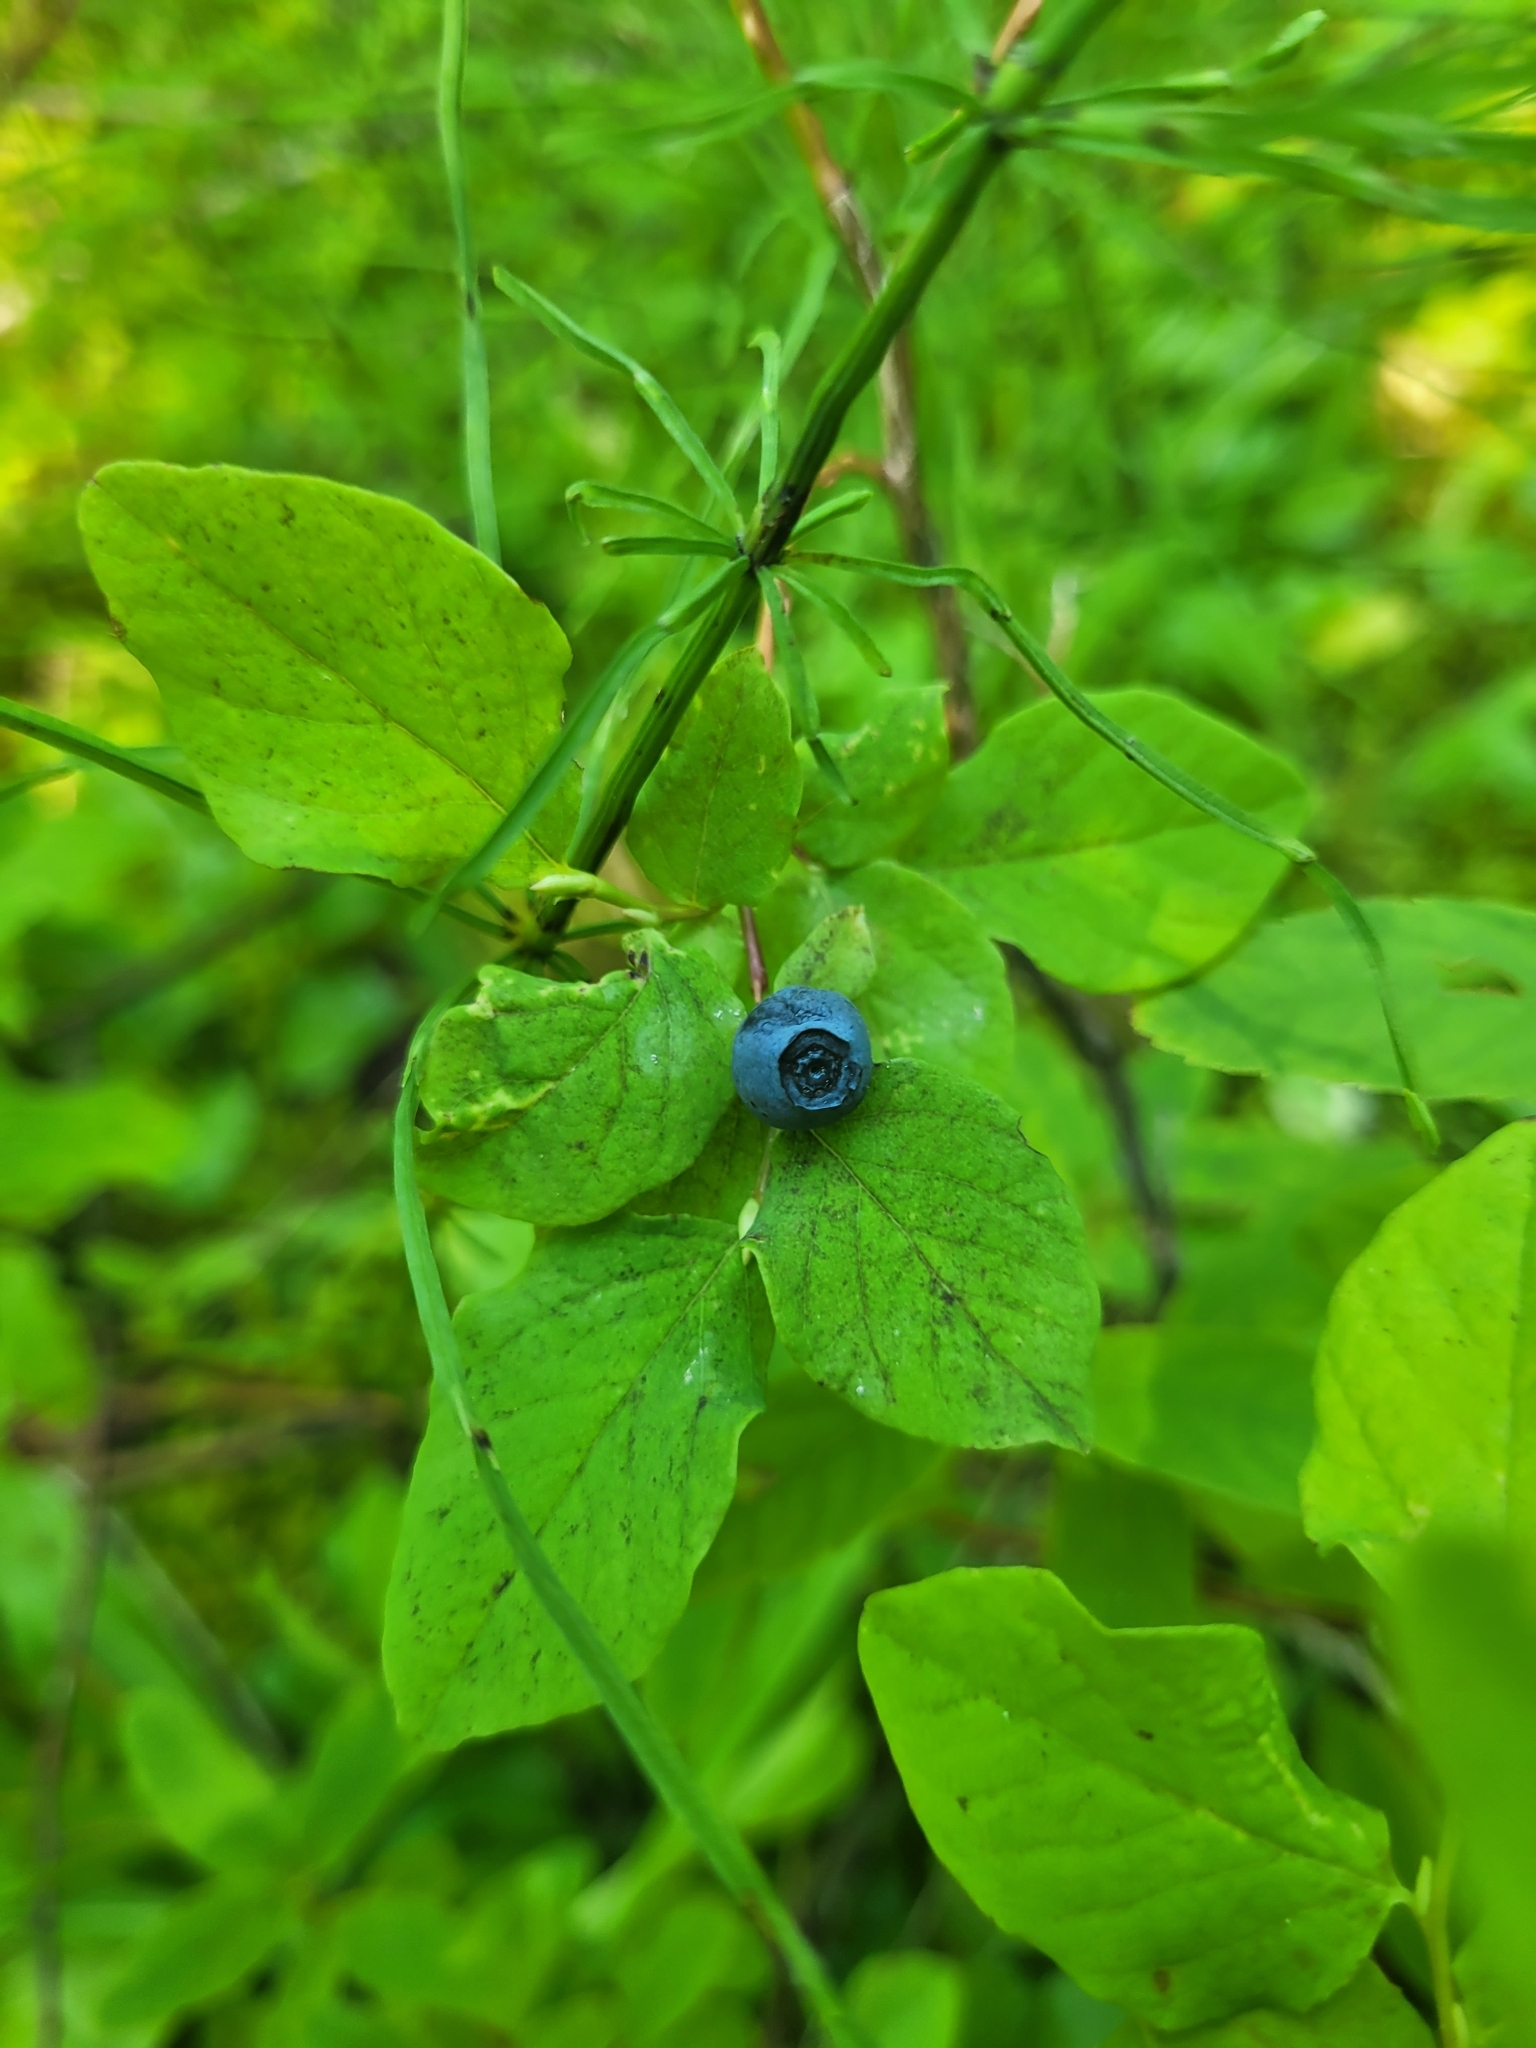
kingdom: Plantae
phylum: Tracheophyta
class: Magnoliopsida
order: Ericales
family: Ericaceae
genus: Vaccinium
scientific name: Vaccinium ovalifolium
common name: Early blueberry
